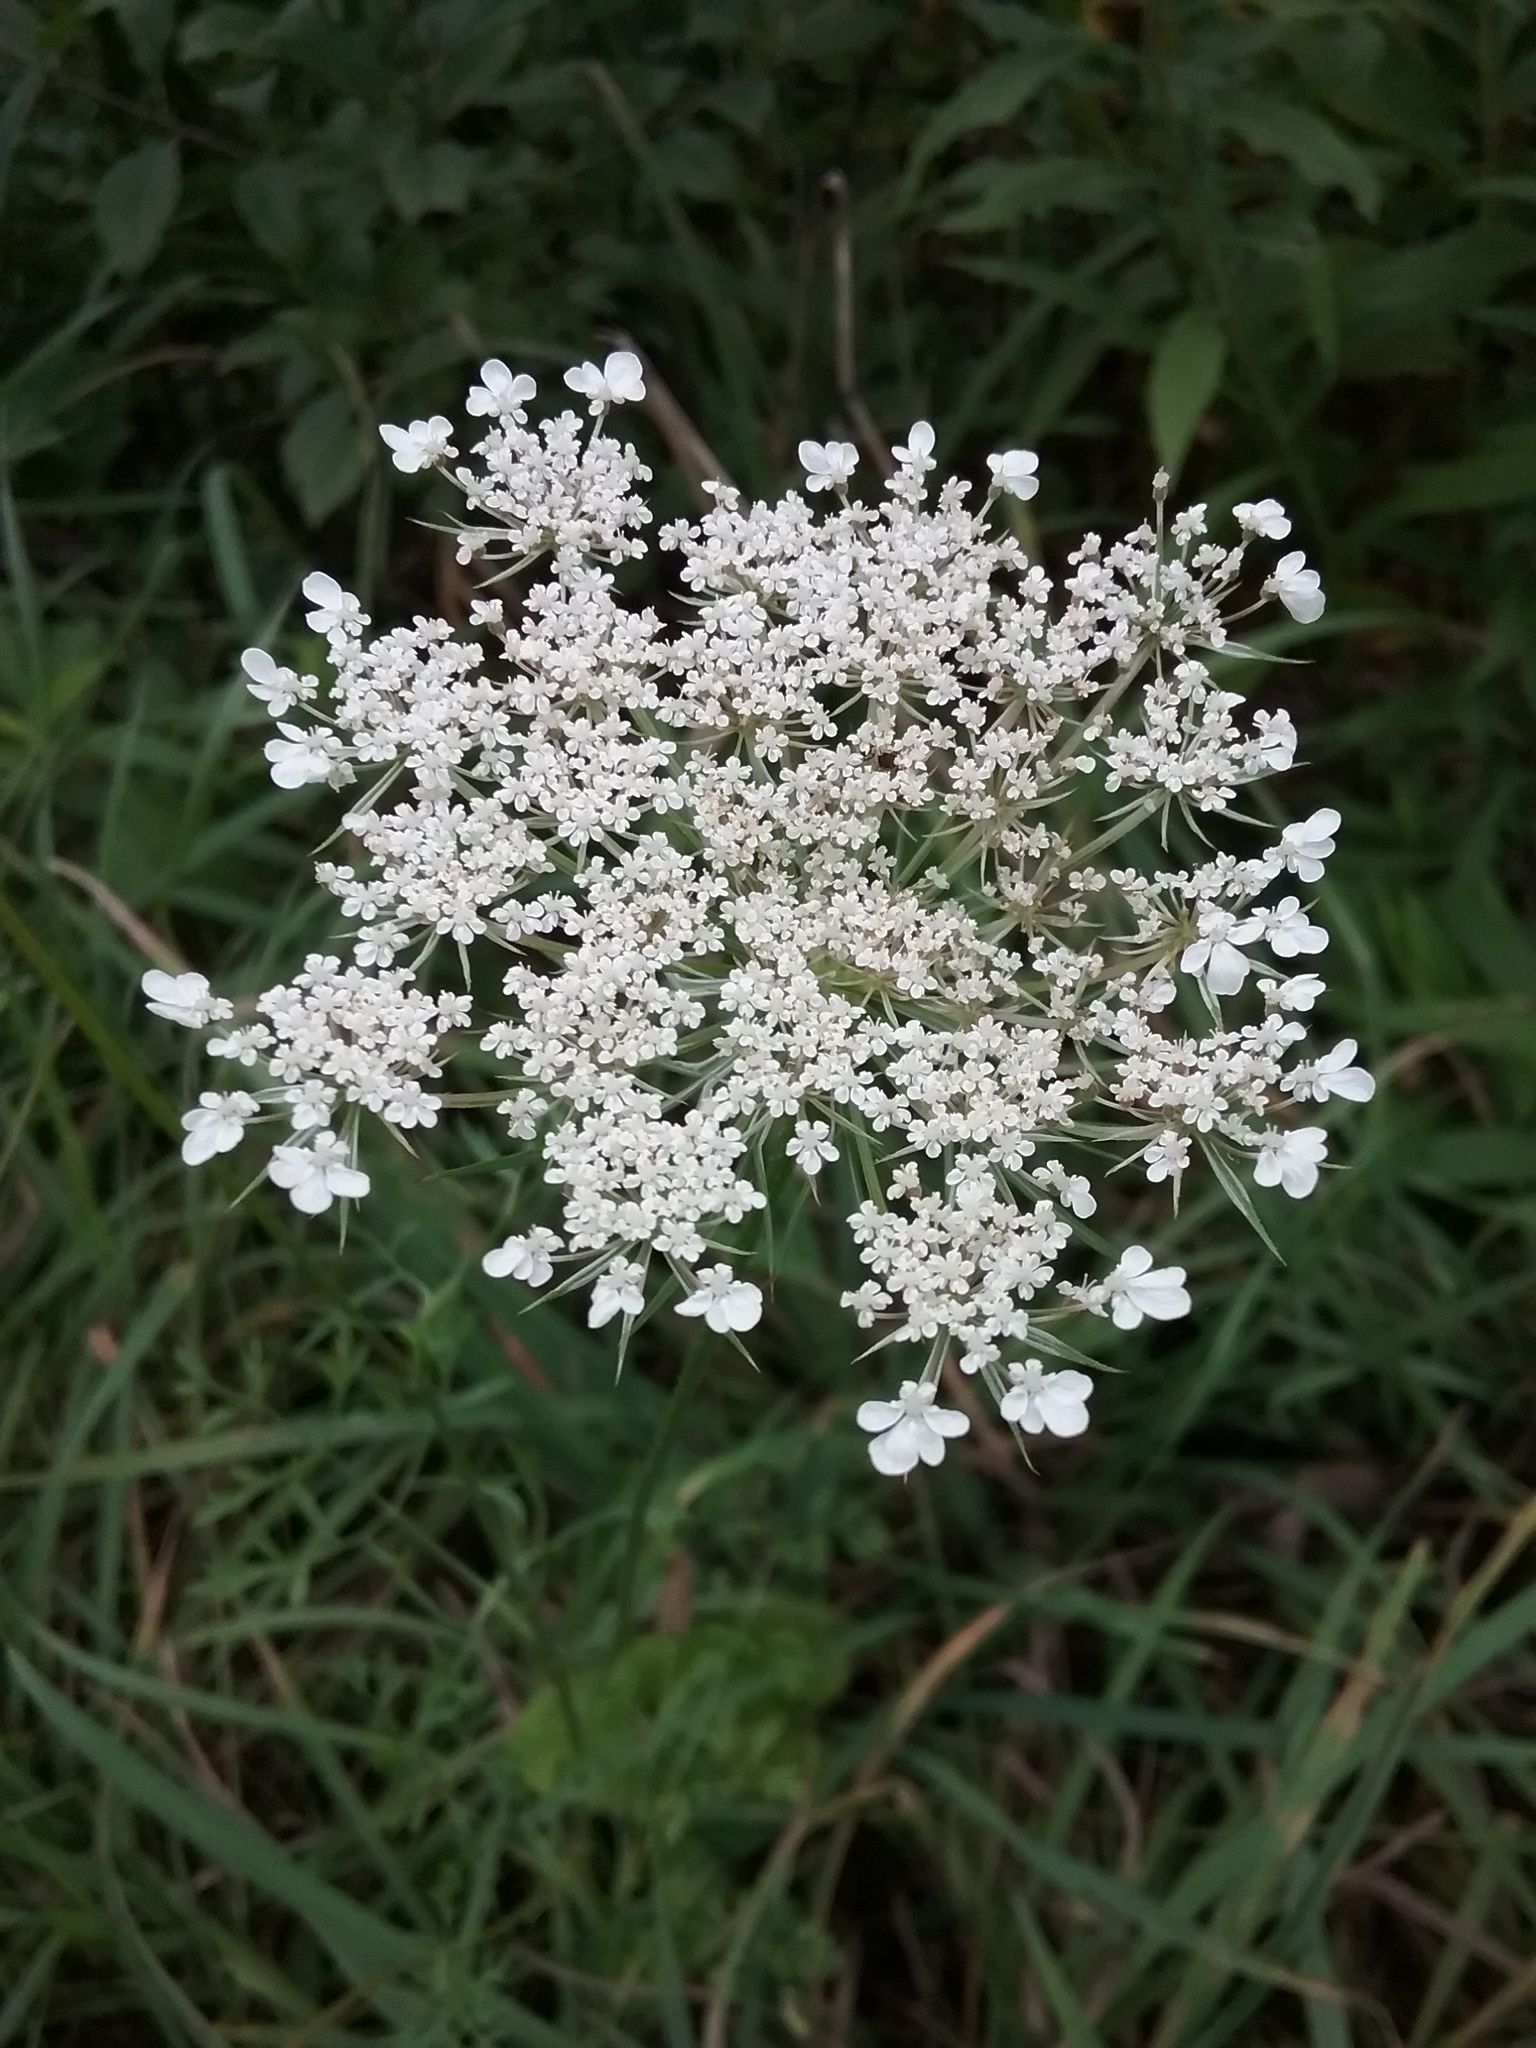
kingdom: Plantae
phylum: Tracheophyta
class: Magnoliopsida
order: Apiales
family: Apiaceae
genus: Daucus
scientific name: Daucus carota
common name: Wild carrot
